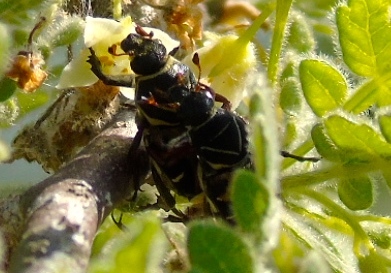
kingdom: Animalia
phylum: Arthropoda
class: Insecta
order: Coleoptera
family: Scarabaeidae
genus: Trigonopeltastes
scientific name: Trigonopeltastes
